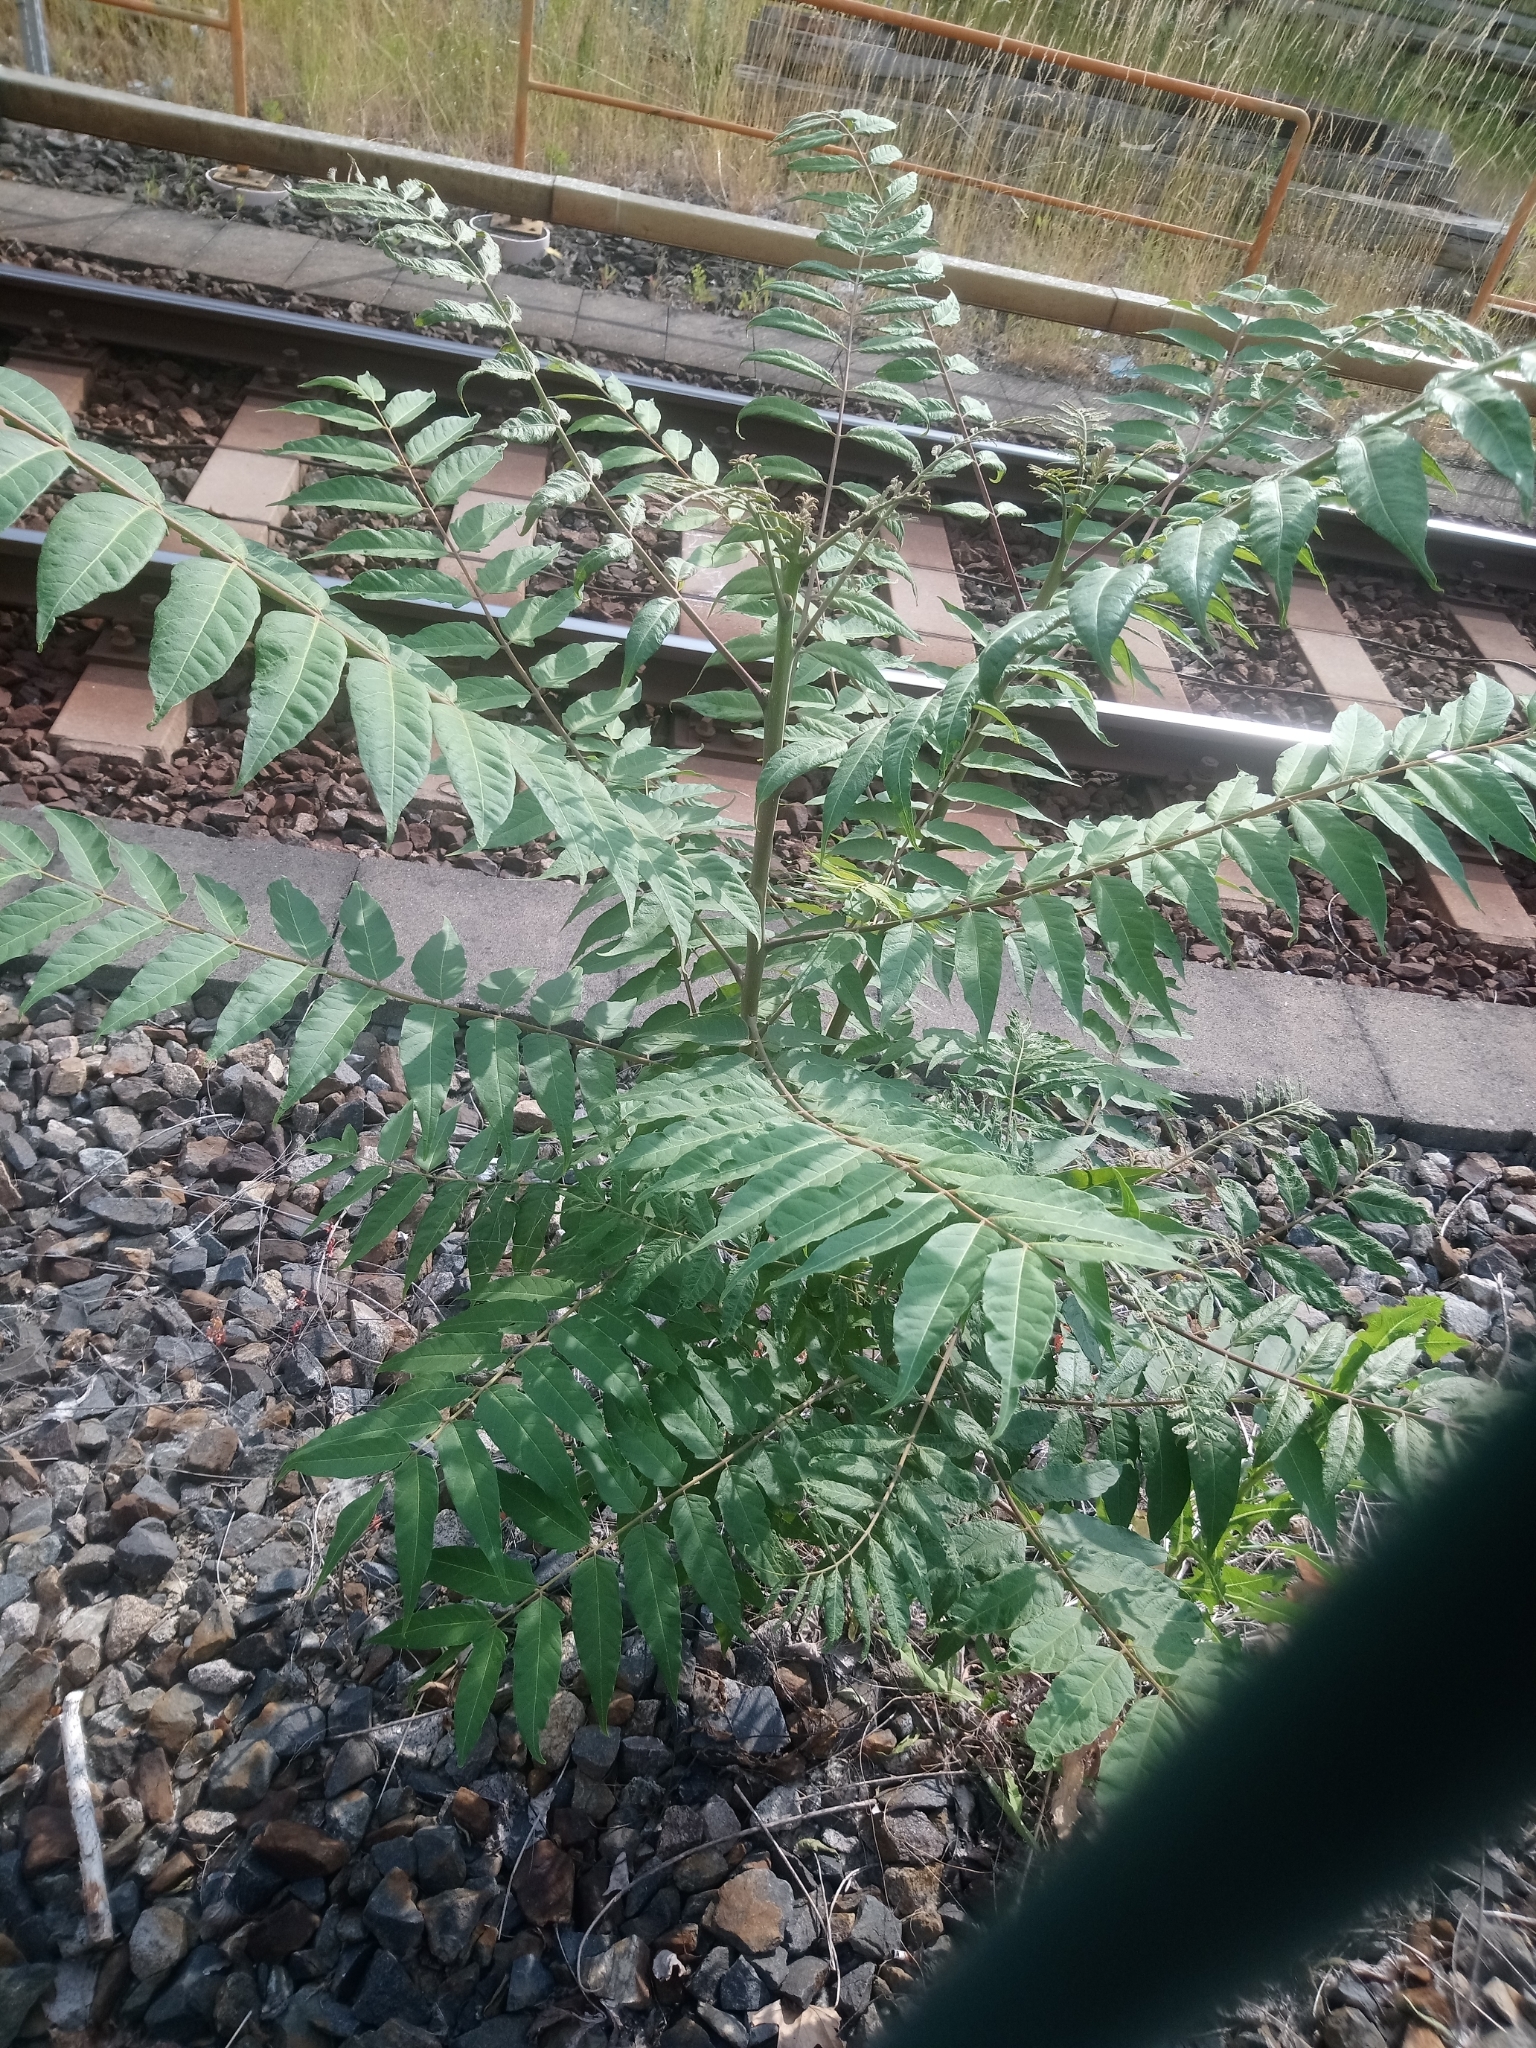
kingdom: Plantae
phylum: Tracheophyta
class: Magnoliopsida
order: Sapindales
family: Simaroubaceae
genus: Ailanthus
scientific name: Ailanthus altissima
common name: Tree-of-heaven
